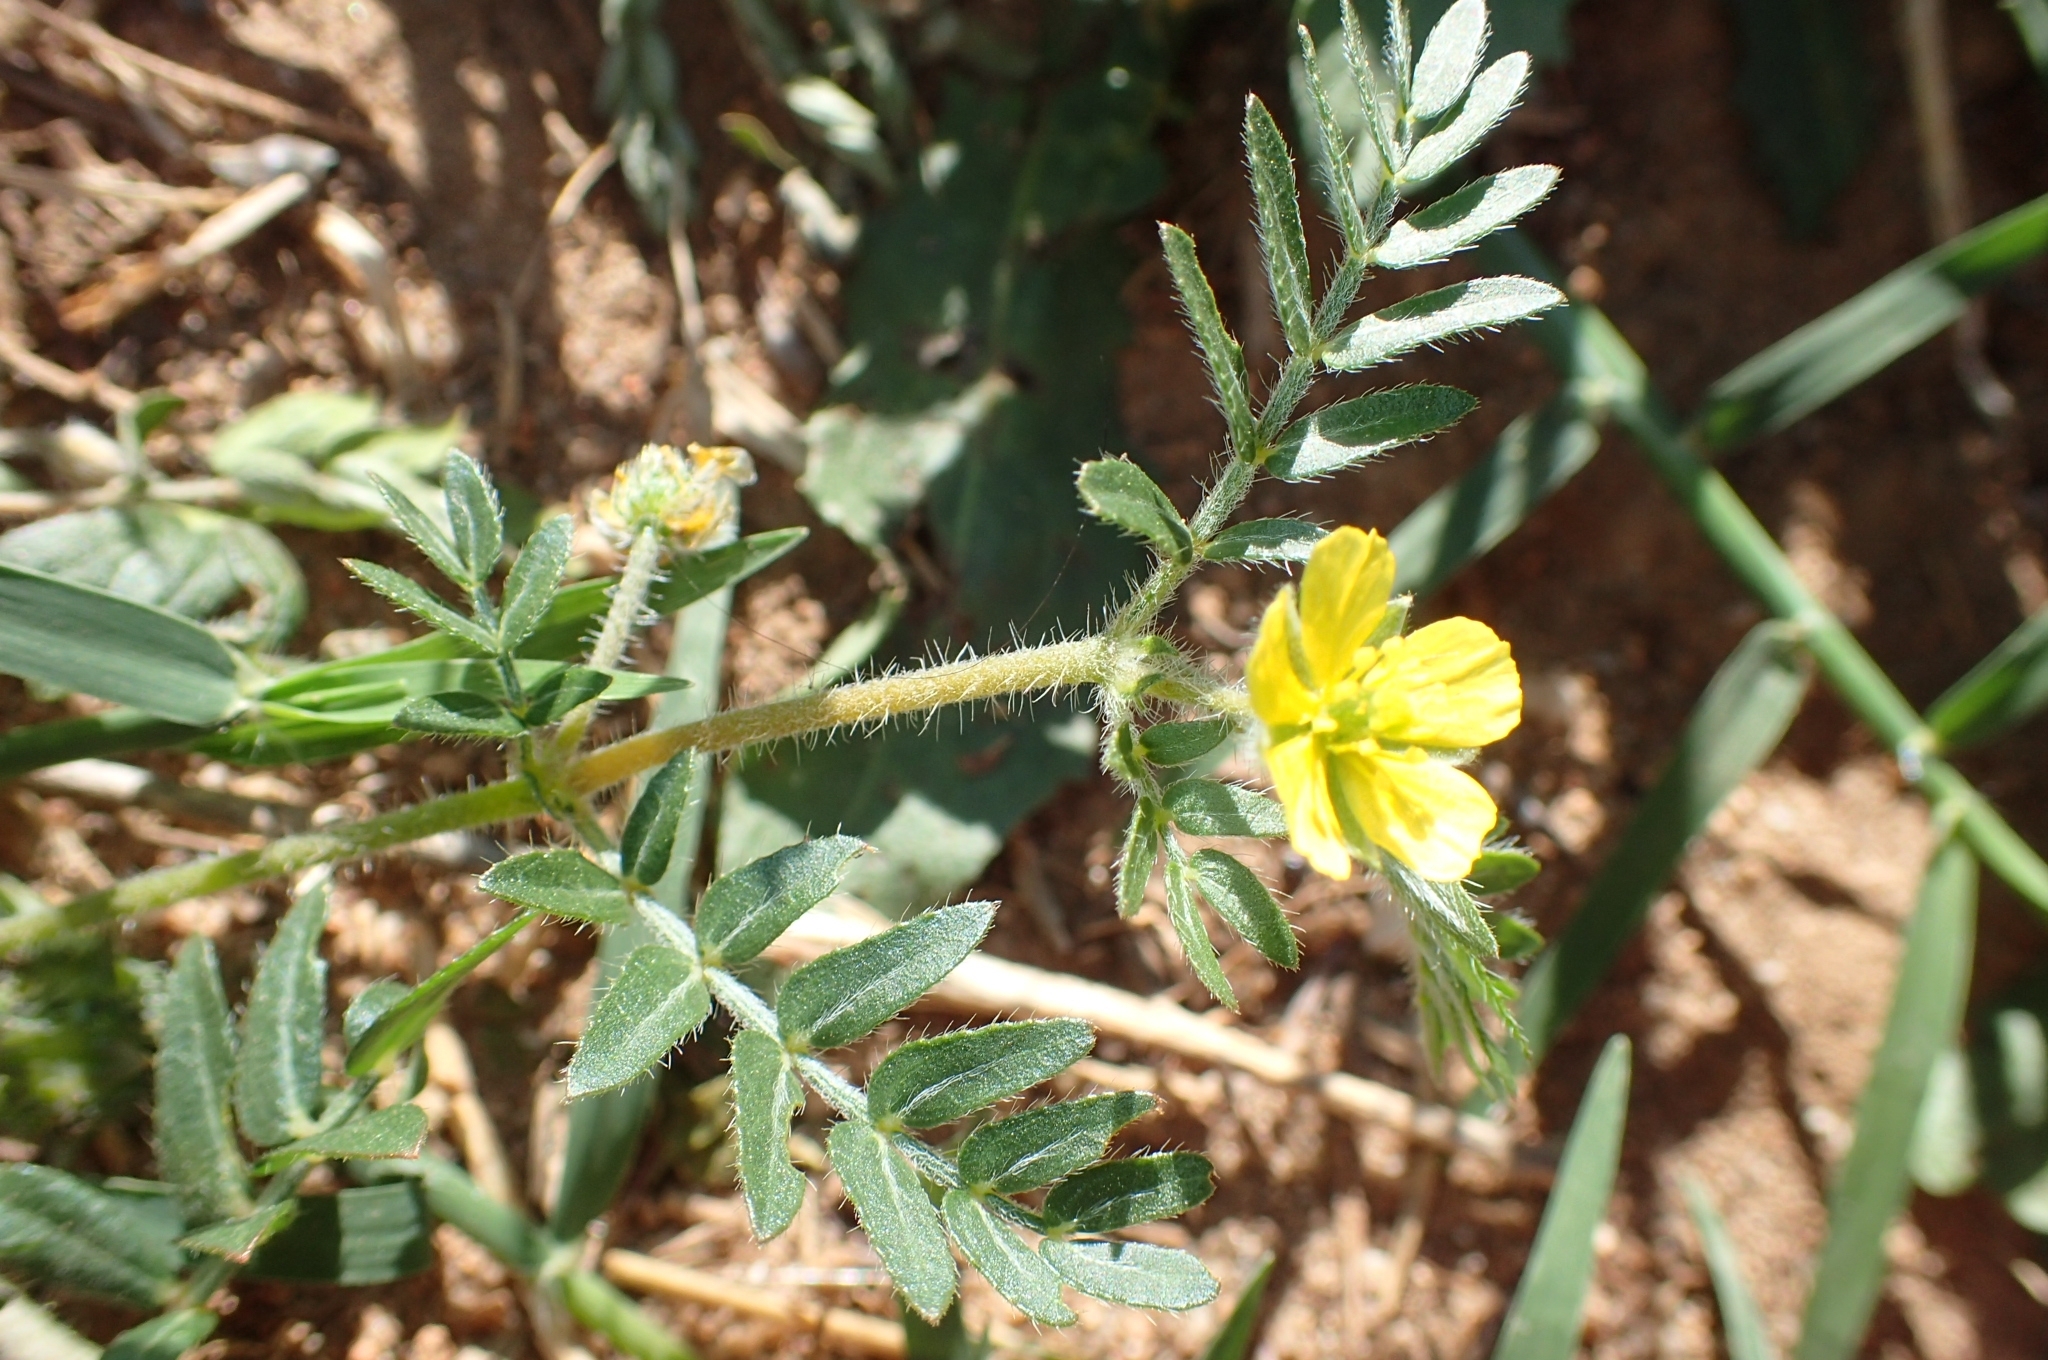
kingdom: Plantae
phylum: Tracheophyta
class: Magnoliopsida
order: Zygophyllales
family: Zygophyllaceae
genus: Tribulus
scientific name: Tribulus terrestris
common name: Puncturevine
